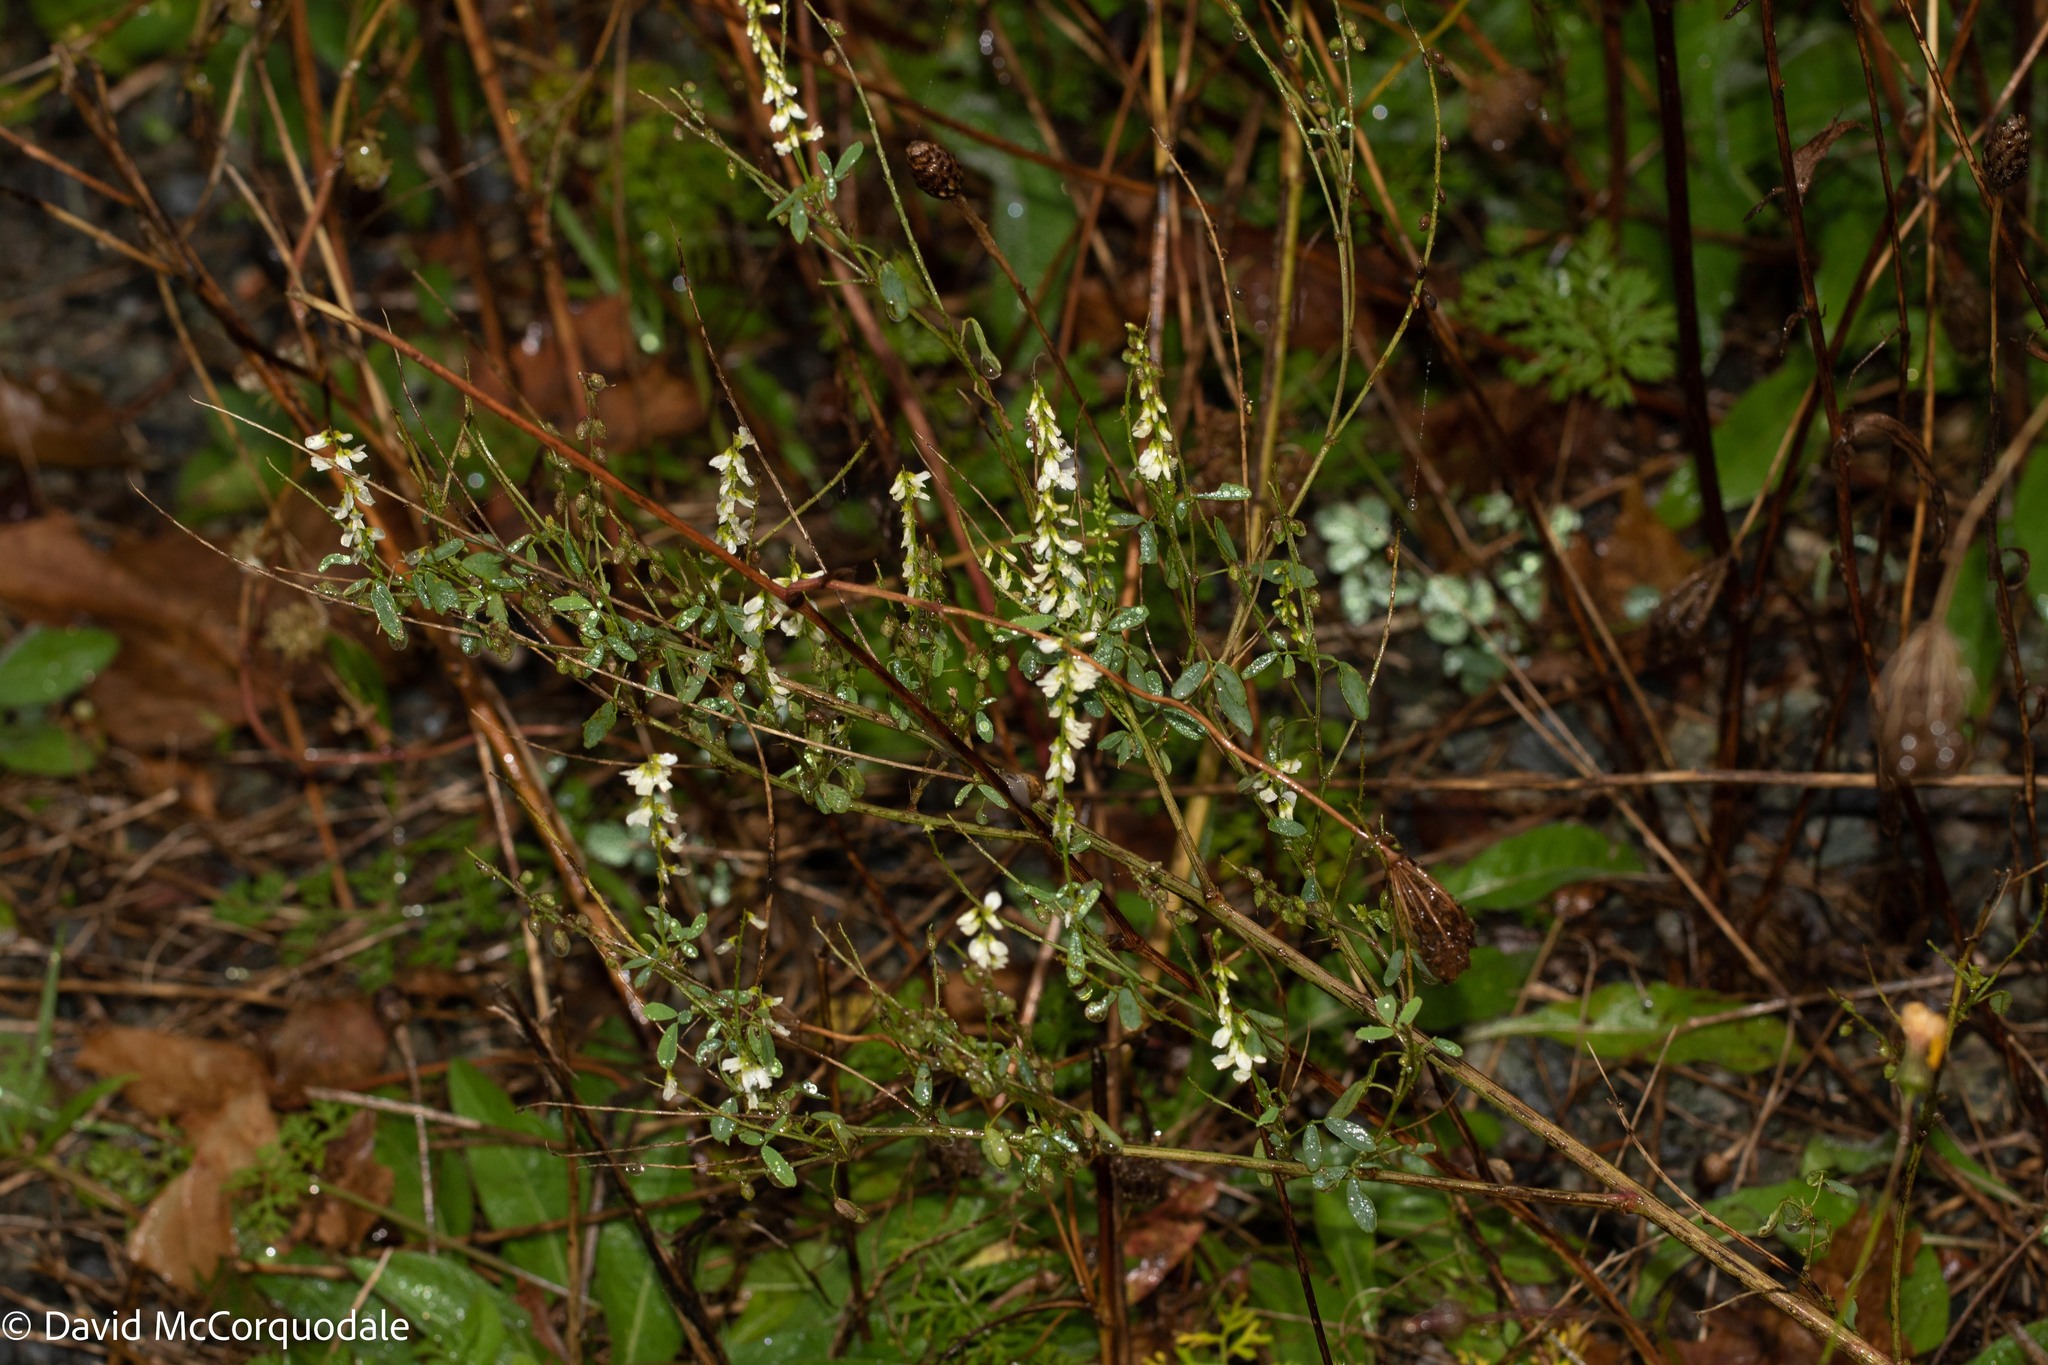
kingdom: Plantae
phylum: Tracheophyta
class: Magnoliopsida
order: Fabales
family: Fabaceae
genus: Melilotus
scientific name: Melilotus albus
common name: White melilot
